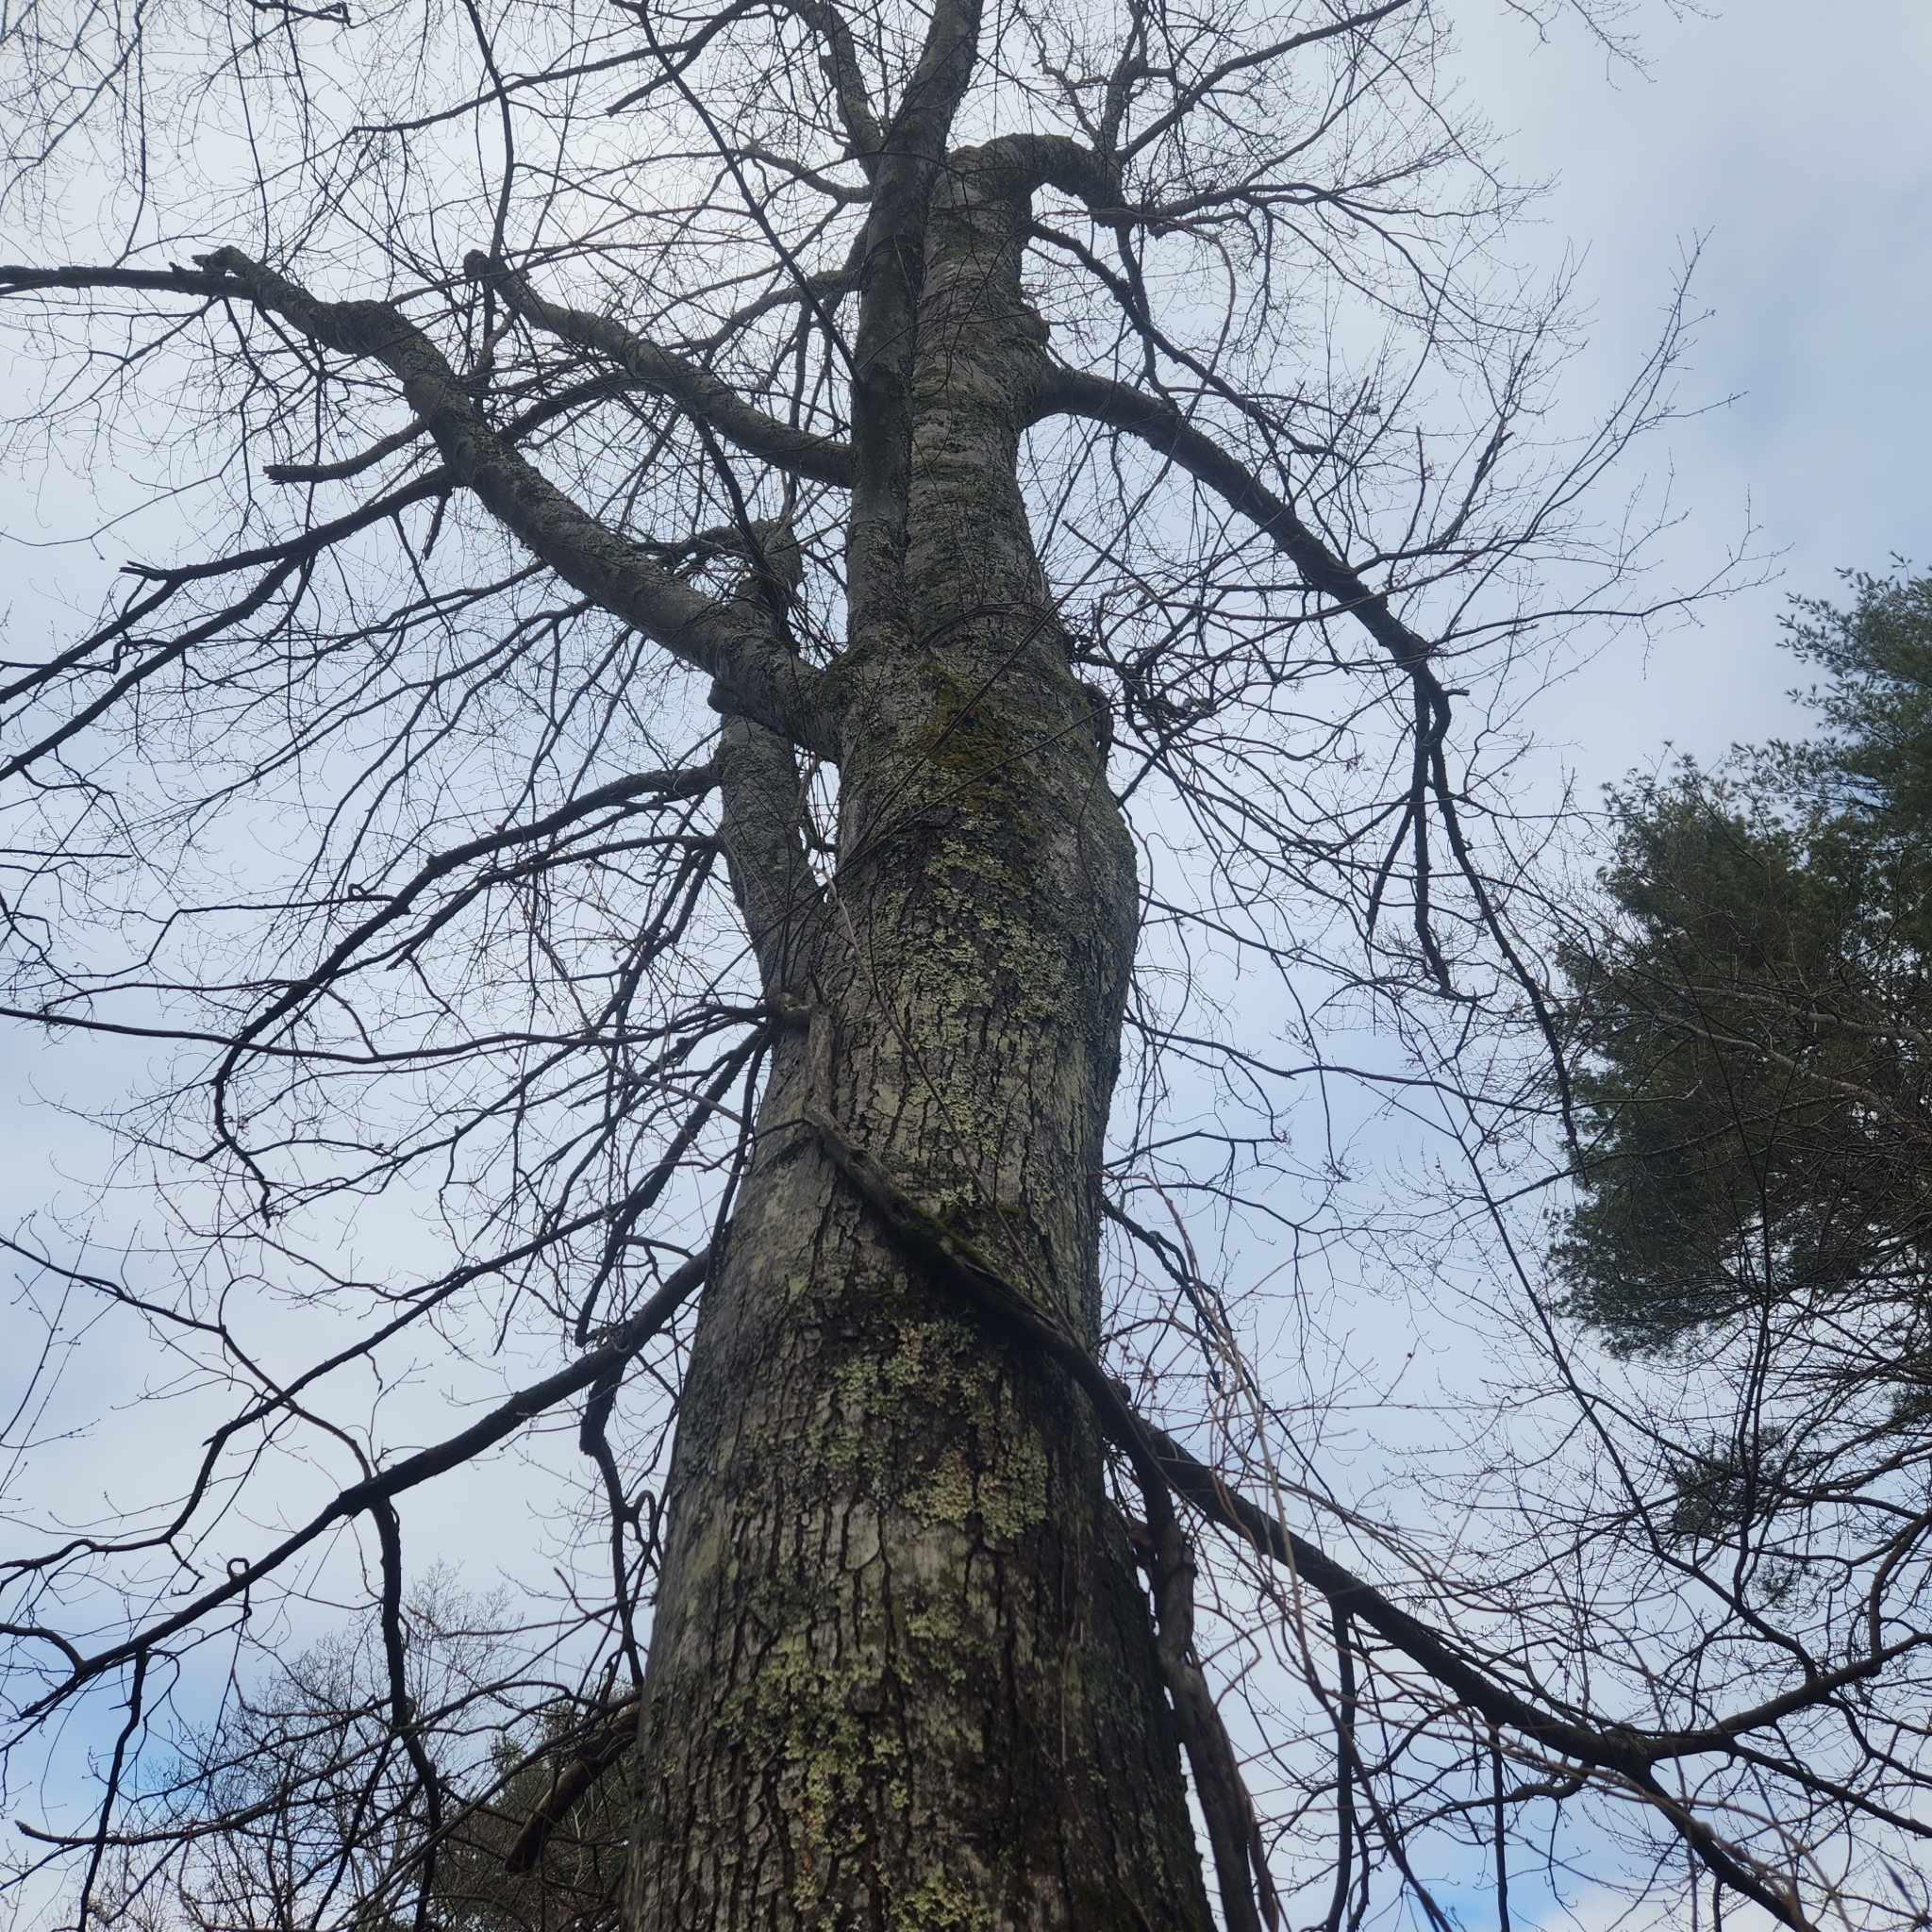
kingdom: Plantae
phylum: Tracheophyta
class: Magnoliopsida
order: Sapindales
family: Sapindaceae
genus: Acer
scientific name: Acer rubrum
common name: Red maple
